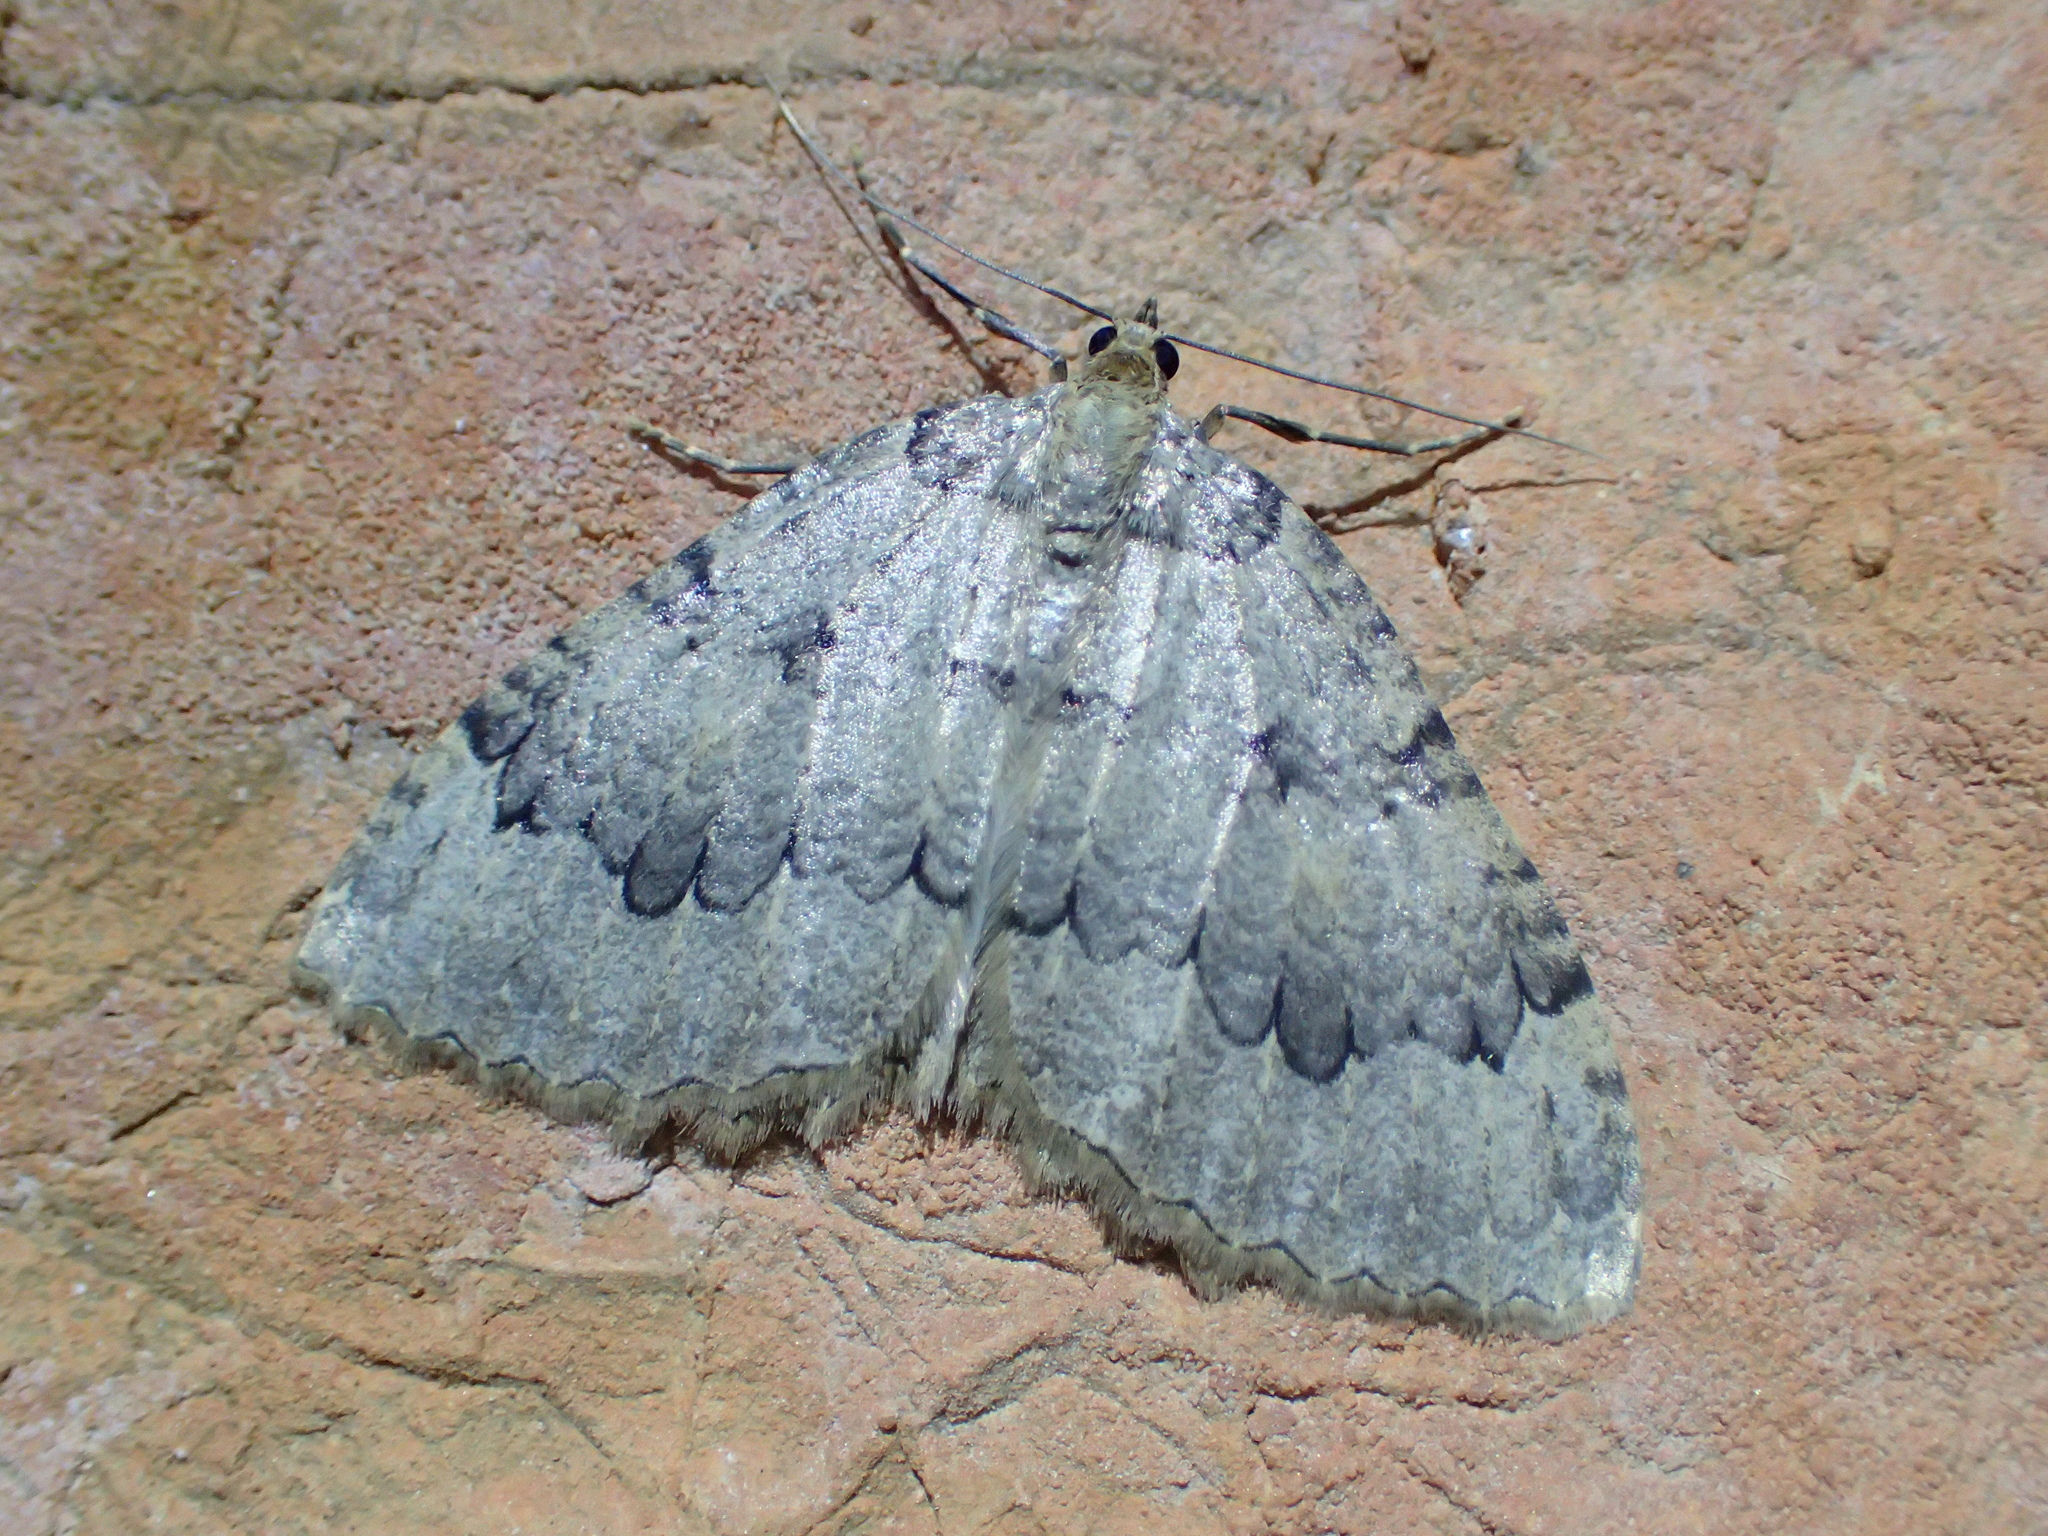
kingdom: Animalia
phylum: Arthropoda
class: Insecta
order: Lepidoptera
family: Geometridae
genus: Triphosa
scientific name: Triphosa tauteli
